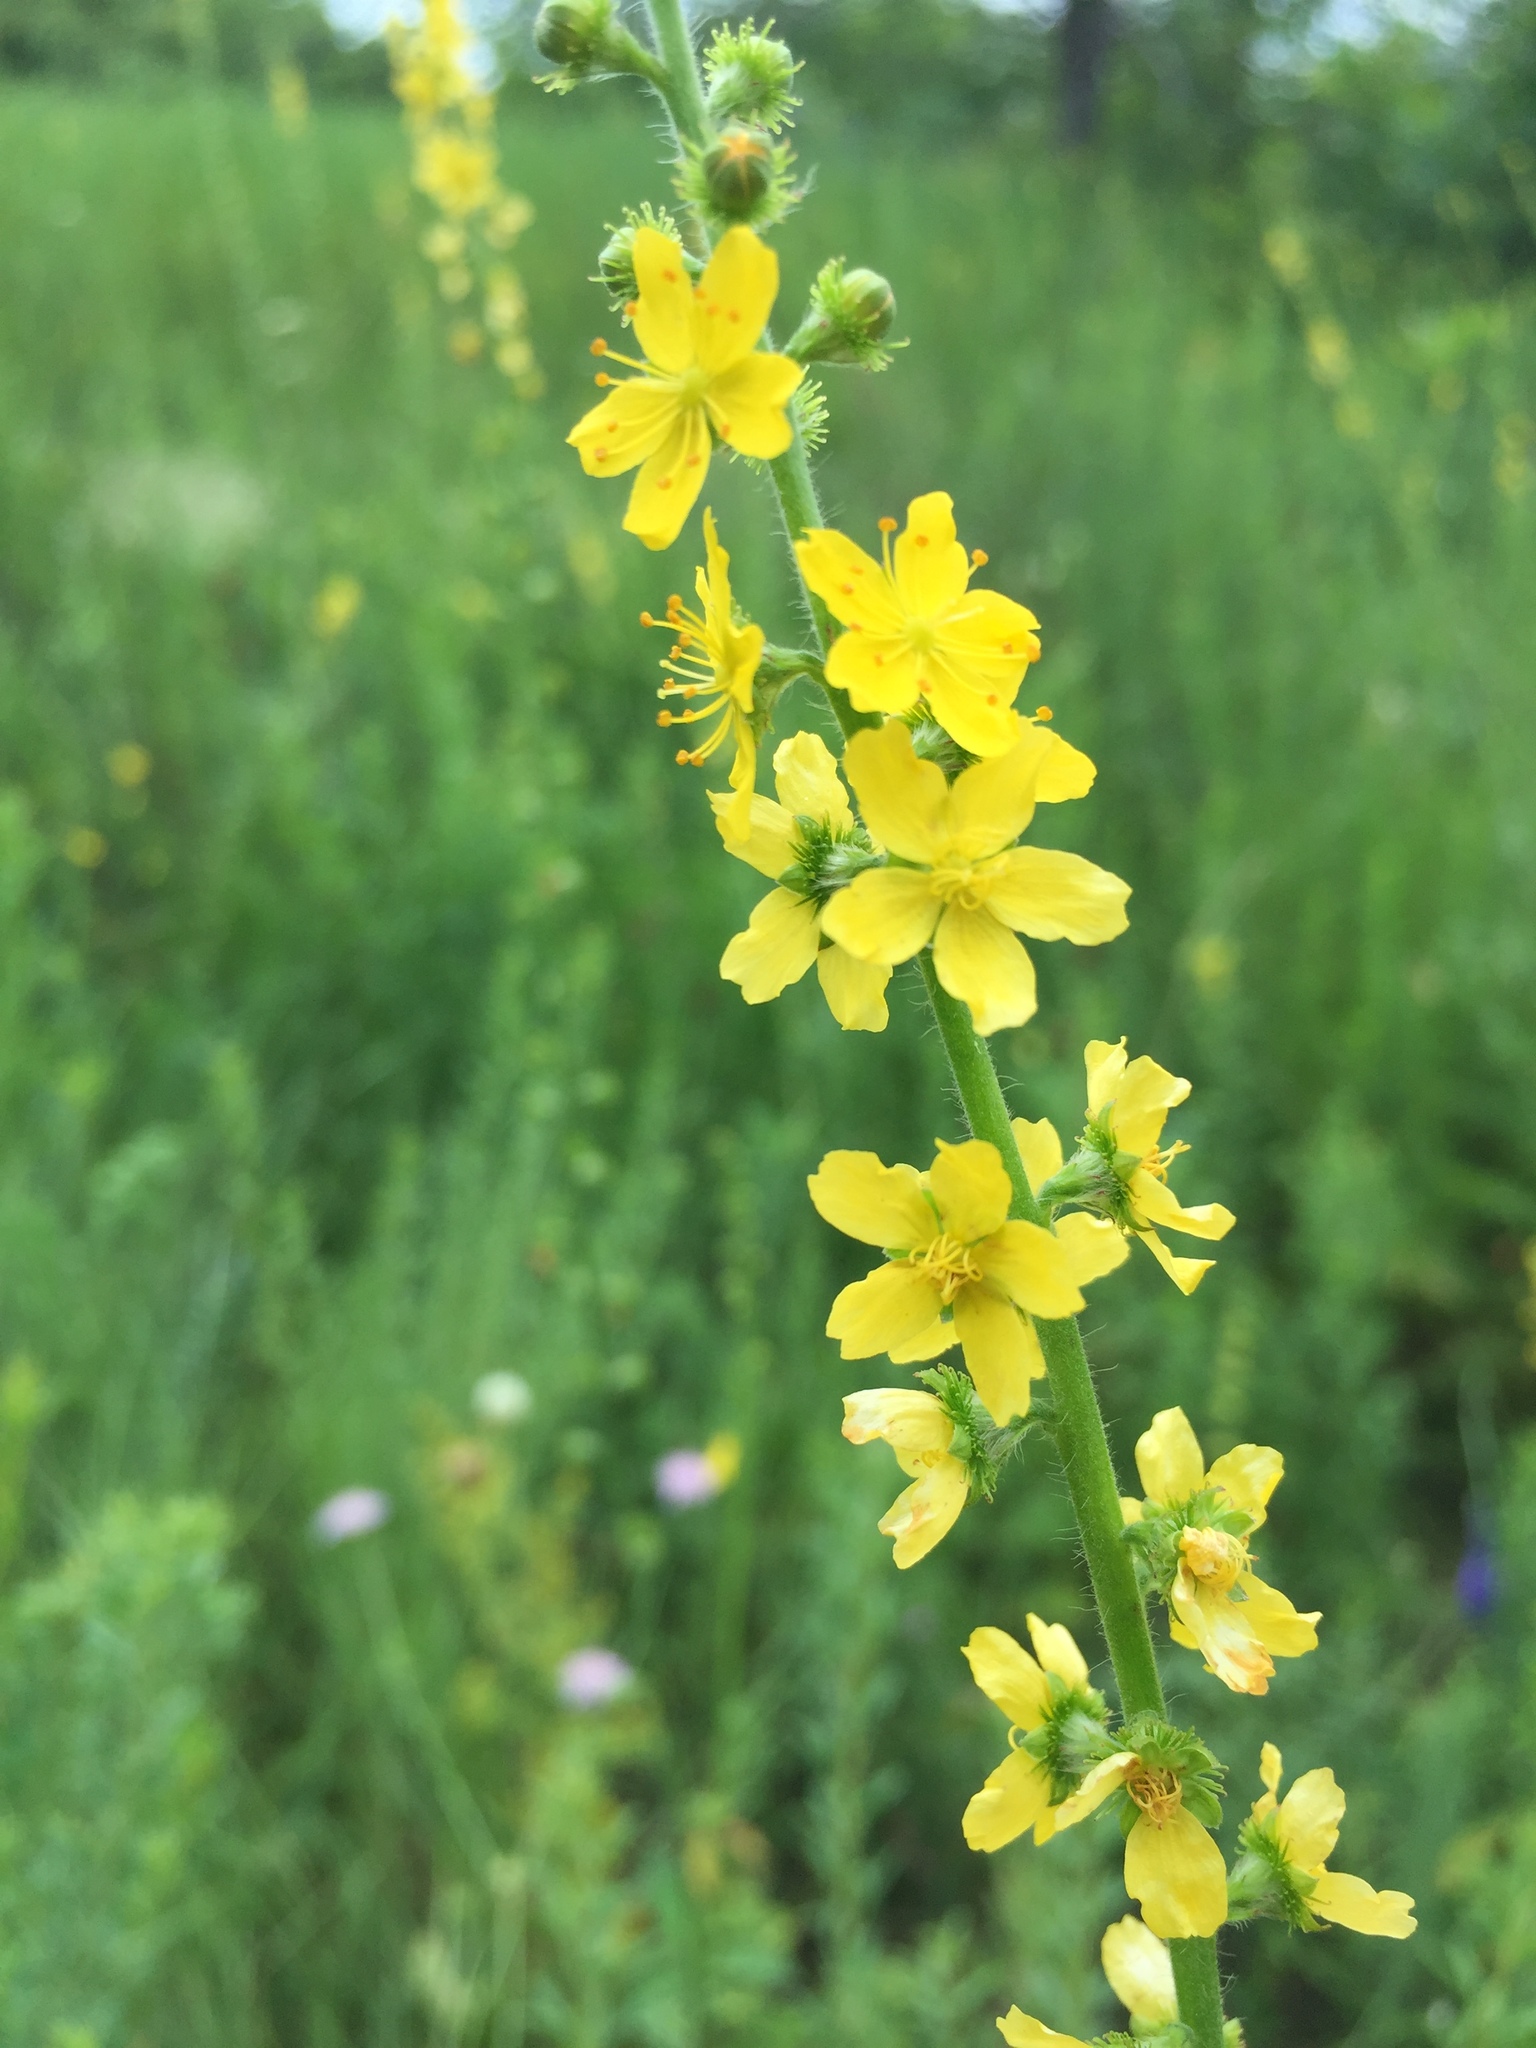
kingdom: Plantae
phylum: Tracheophyta
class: Magnoliopsida
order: Rosales
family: Rosaceae
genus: Agrimonia
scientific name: Agrimonia eupatoria
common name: Agrimony
